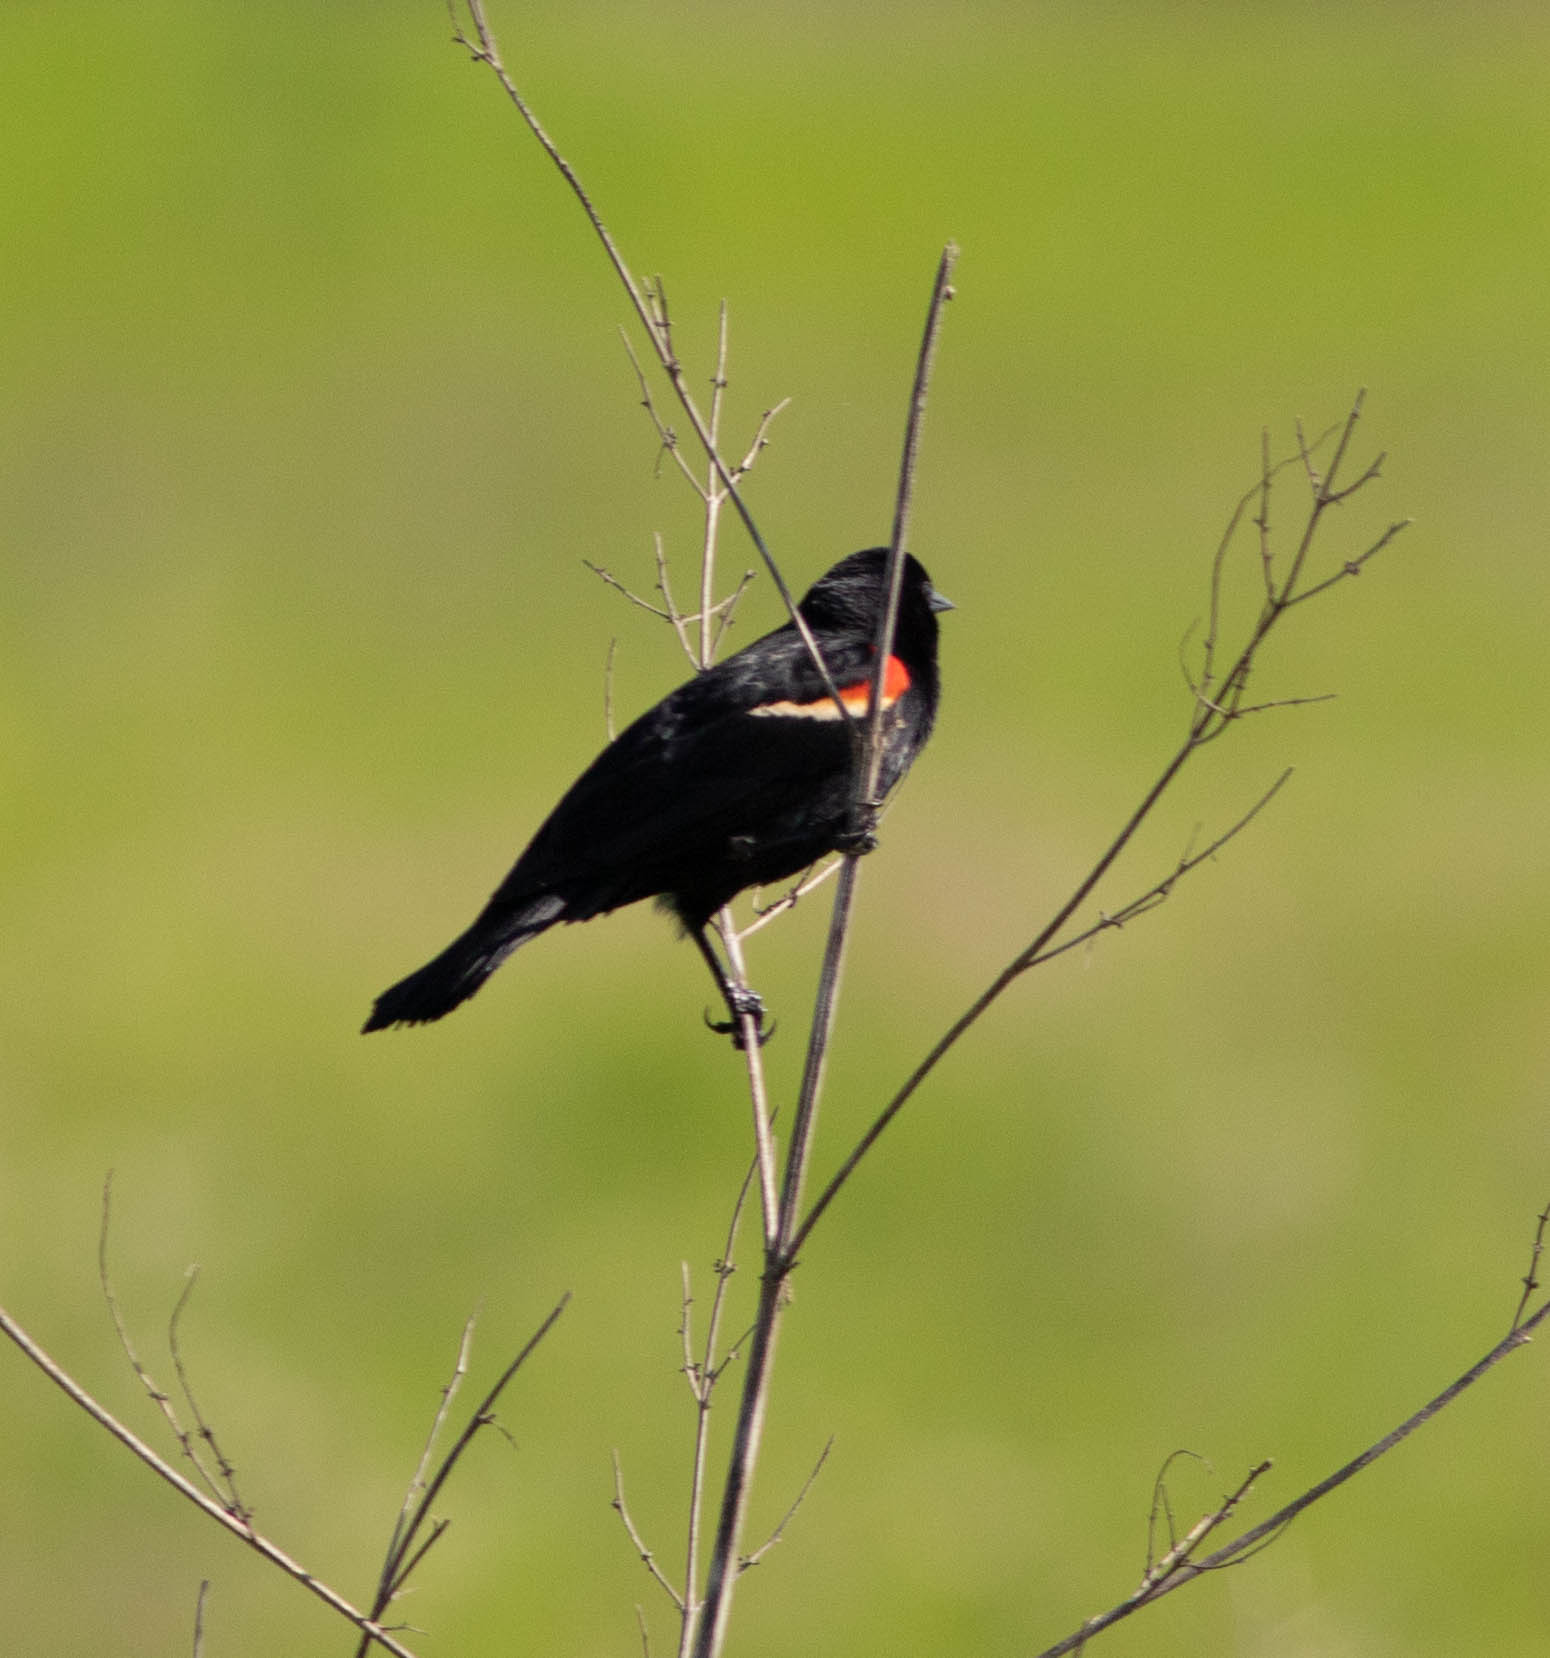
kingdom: Animalia
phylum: Chordata
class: Aves
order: Passeriformes
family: Icteridae
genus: Agelaius
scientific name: Agelaius phoeniceus
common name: Red-winged blackbird
